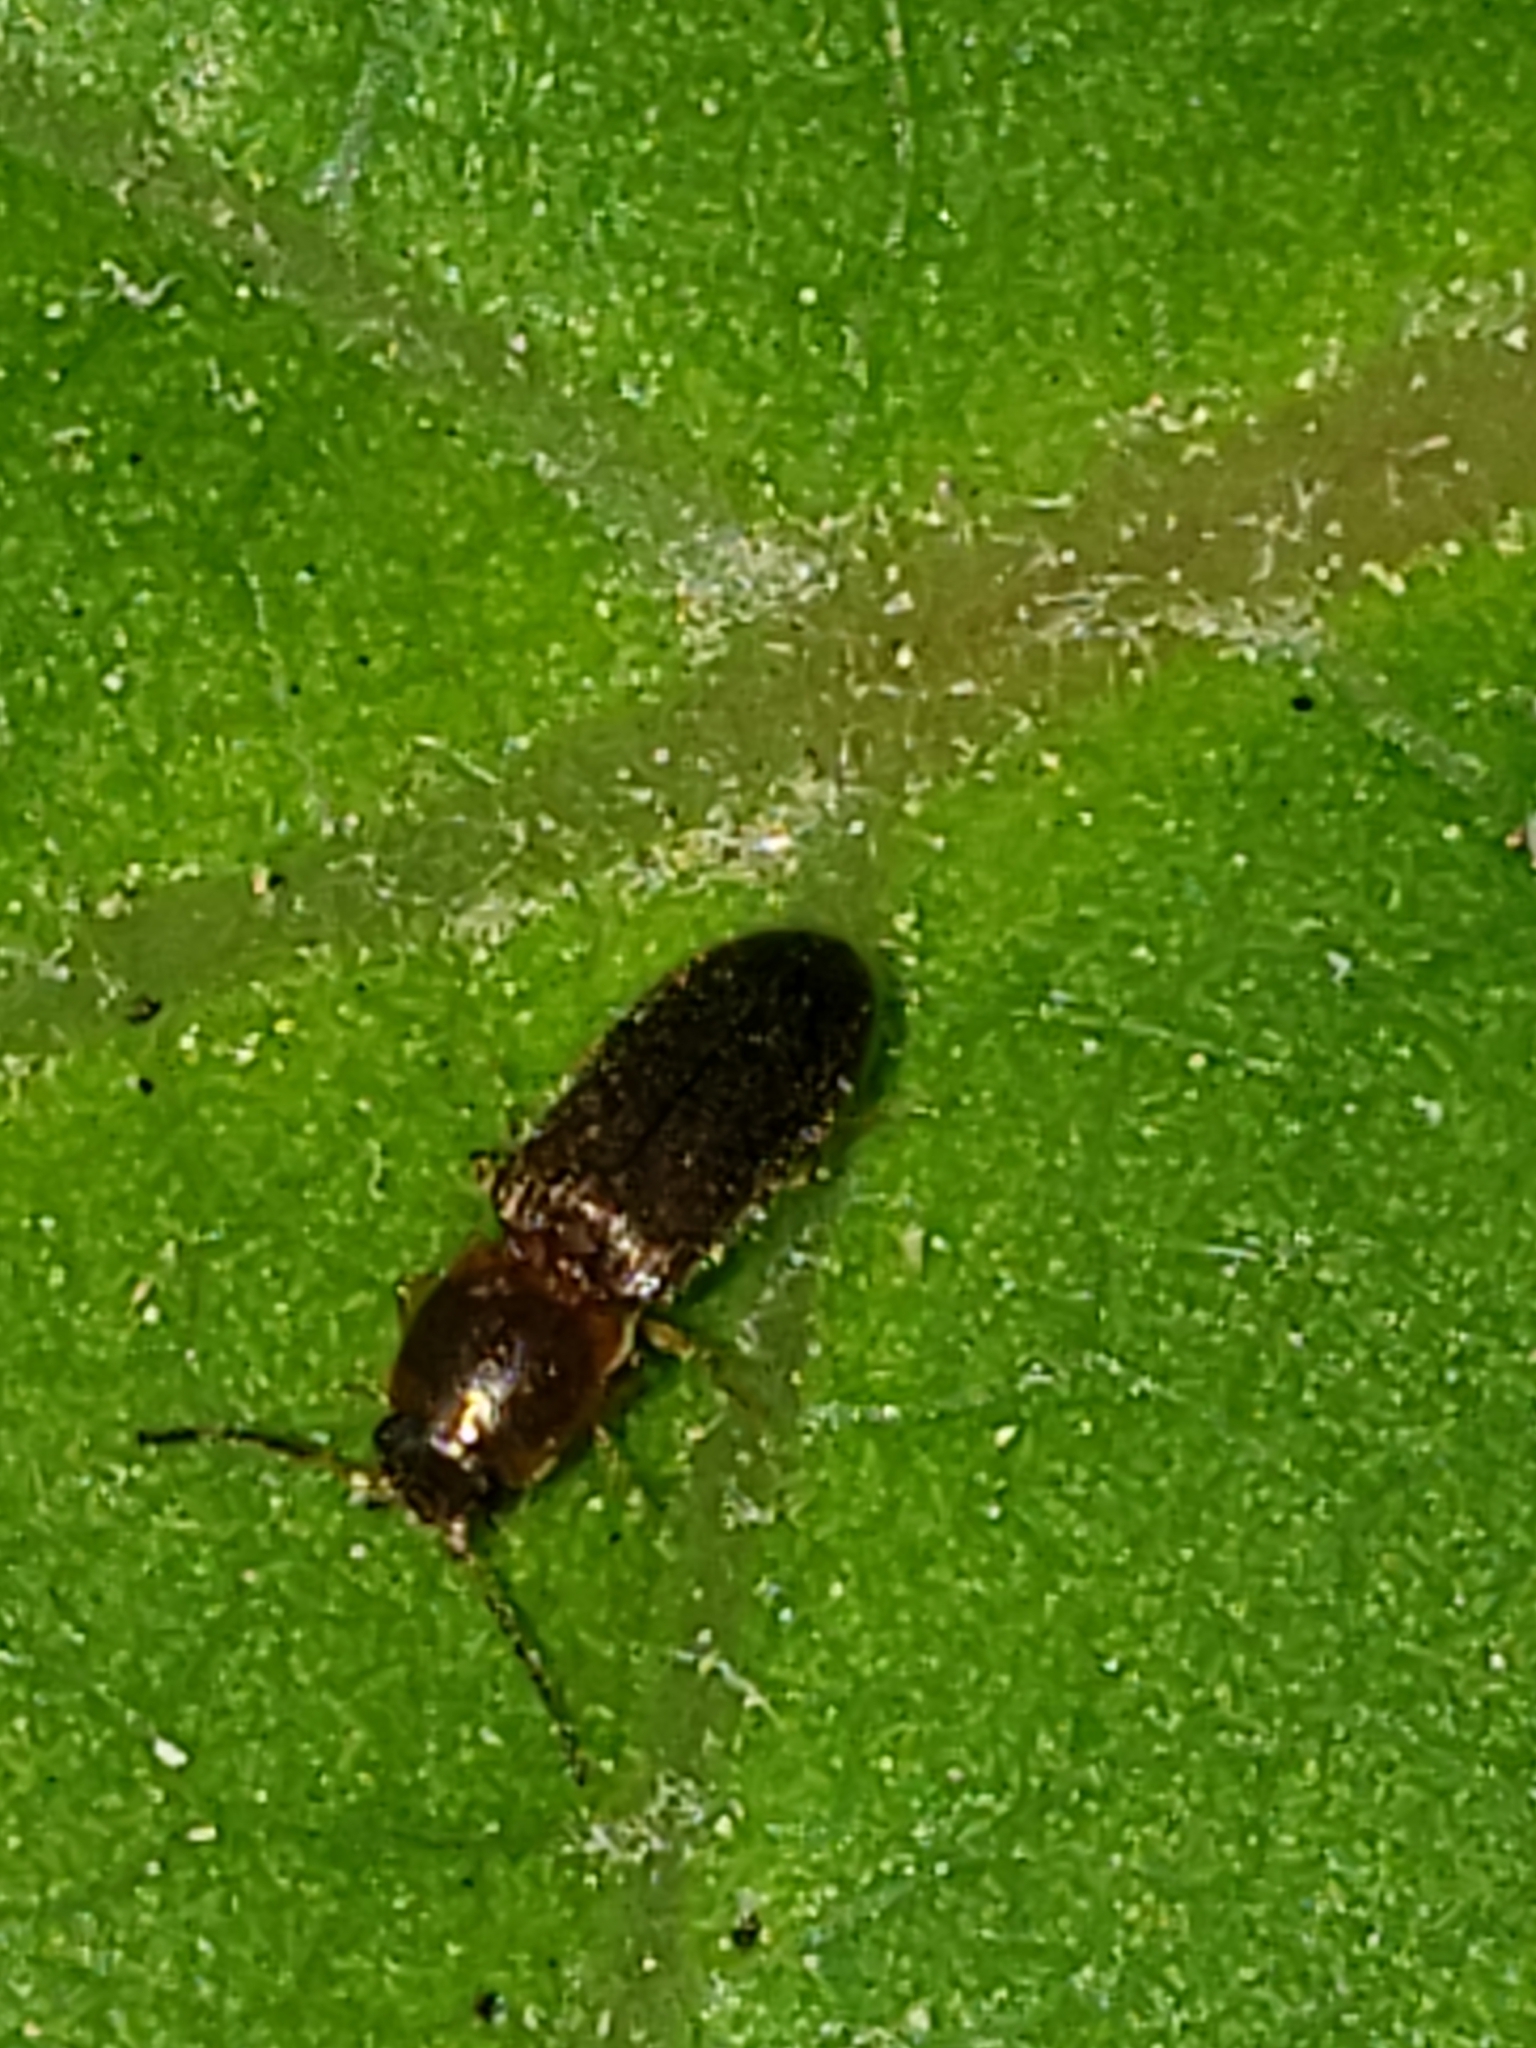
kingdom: Animalia
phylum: Arthropoda
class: Insecta
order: Coleoptera
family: Elateridae
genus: Tetralimonius
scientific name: Tetralimonius
